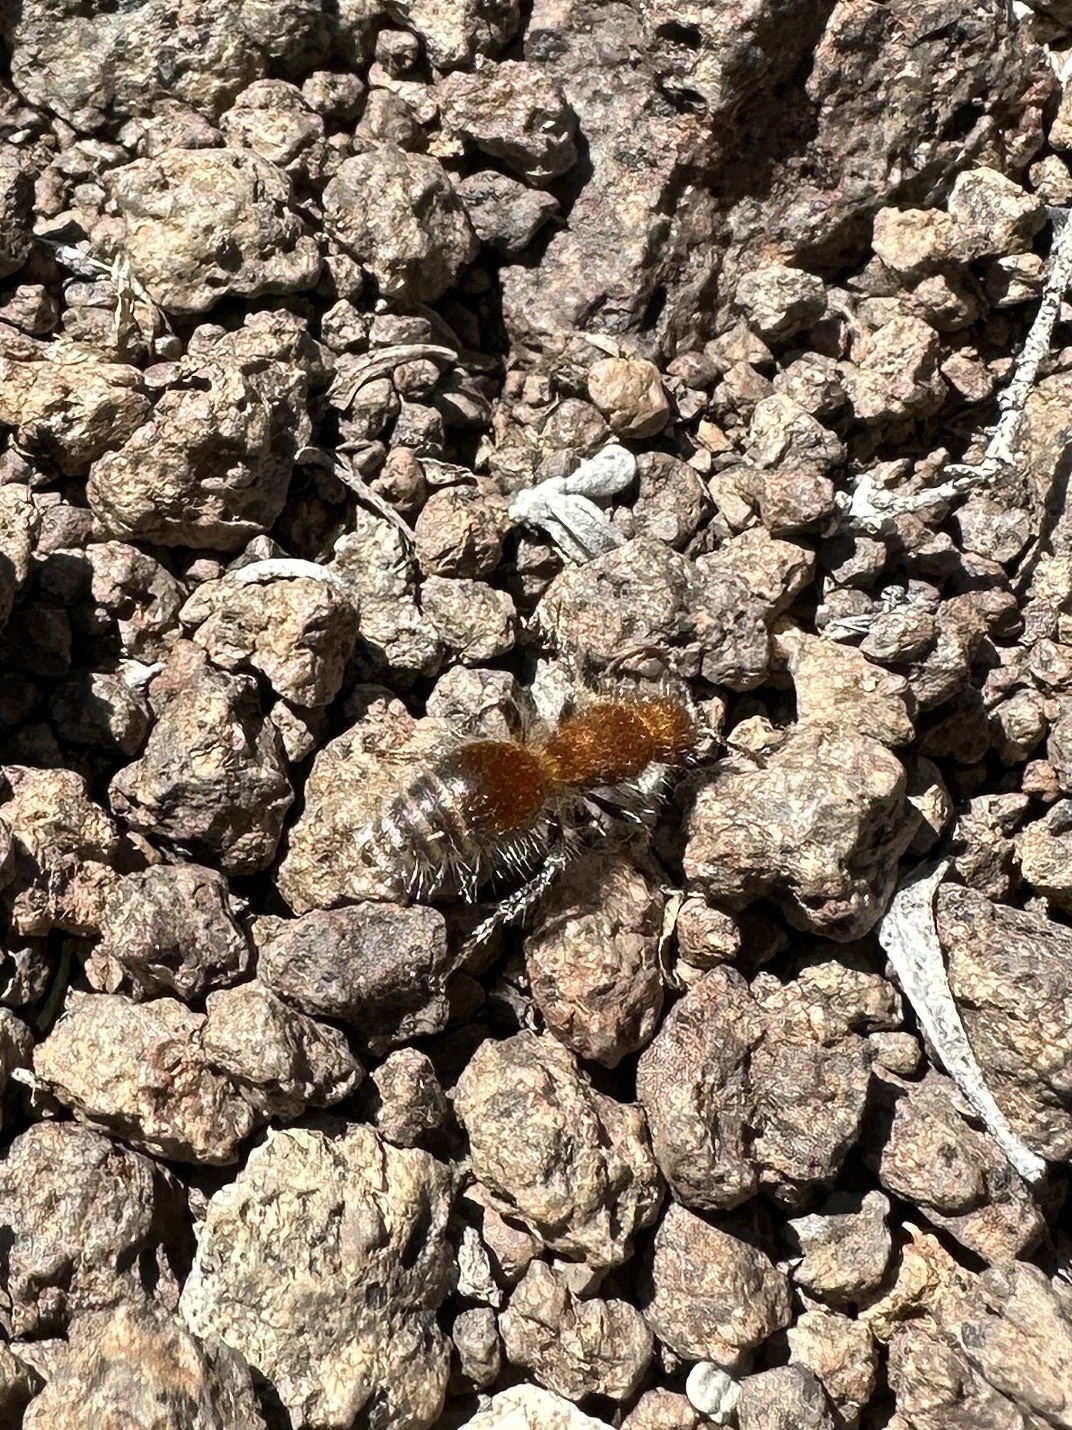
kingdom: Animalia
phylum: Arthropoda
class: Insecta
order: Hymenoptera
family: Mutillidae
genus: Sphaeropthalma
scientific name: Sphaeropthalma mendica
